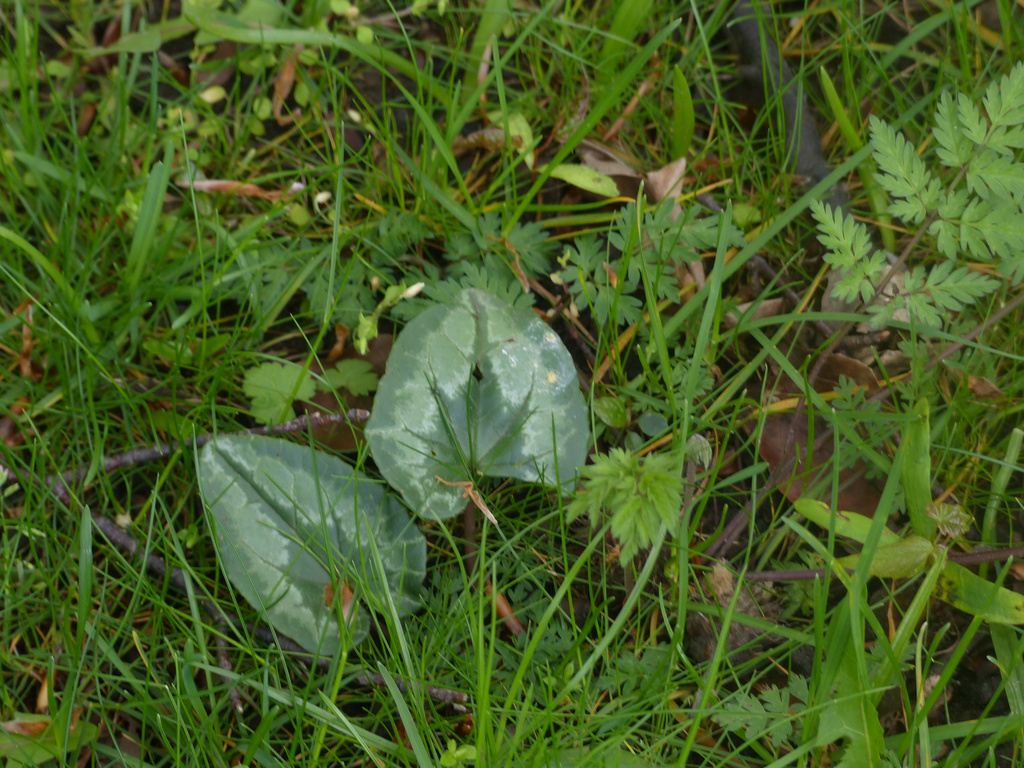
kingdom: Plantae
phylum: Tracheophyta
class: Magnoliopsida
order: Ericales
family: Primulaceae
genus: Cyclamen
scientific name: Cyclamen hederifolium
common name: Sowbread
